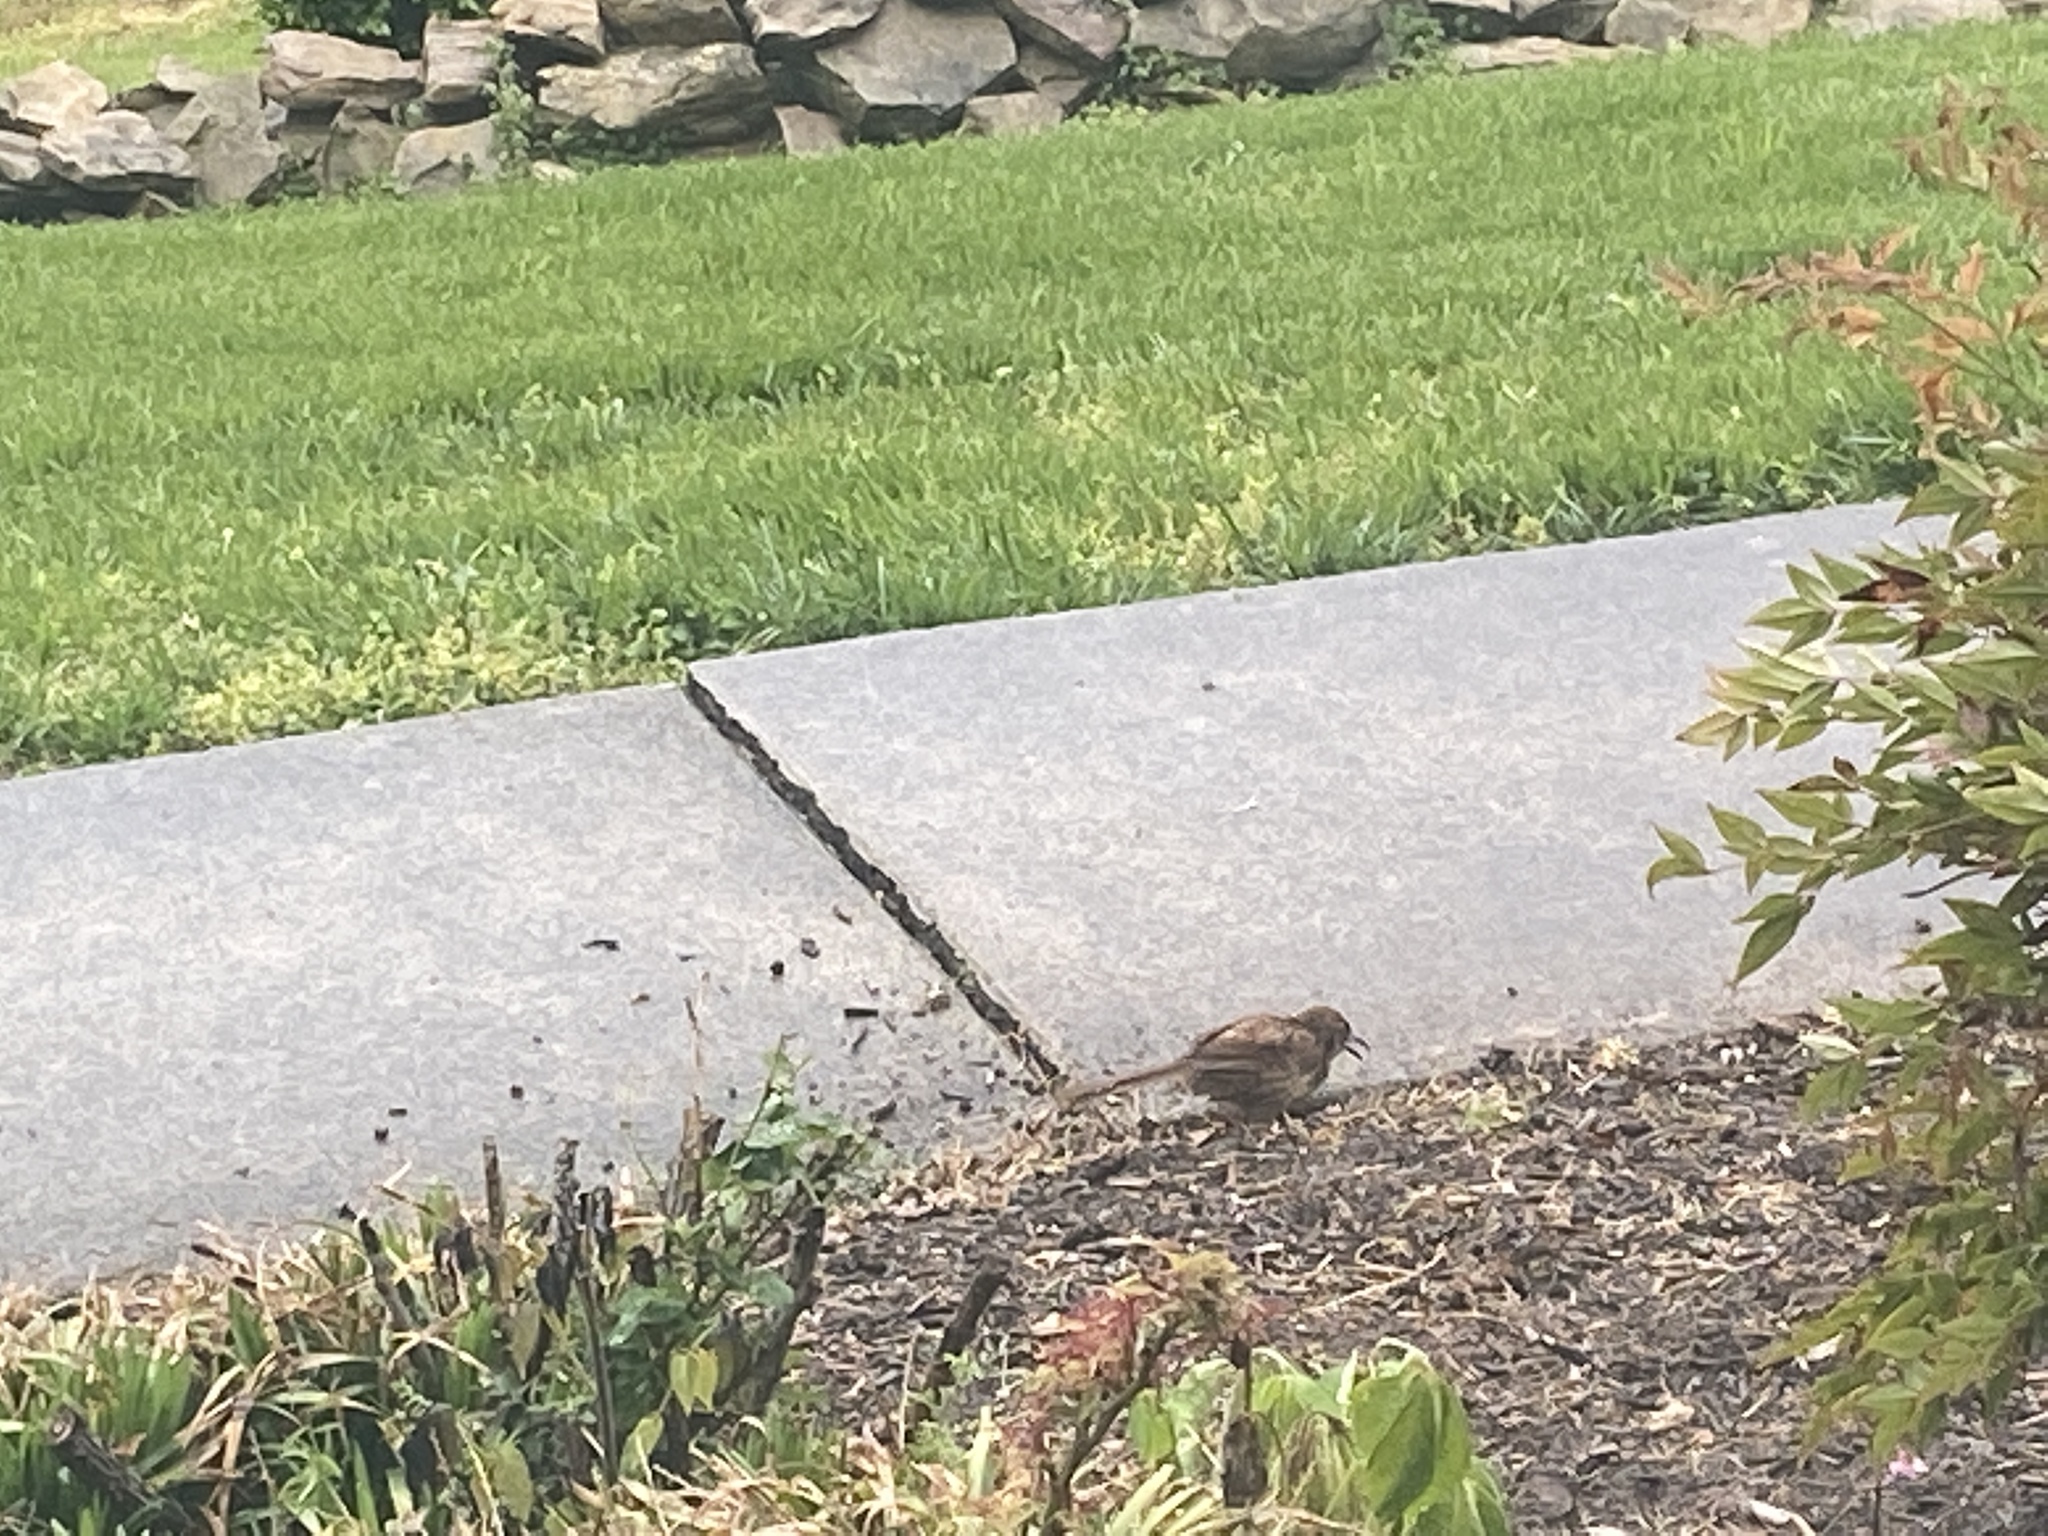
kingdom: Animalia
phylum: Chordata
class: Aves
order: Passeriformes
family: Mimidae
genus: Toxostoma
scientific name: Toxostoma rufum
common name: Brown thrasher
